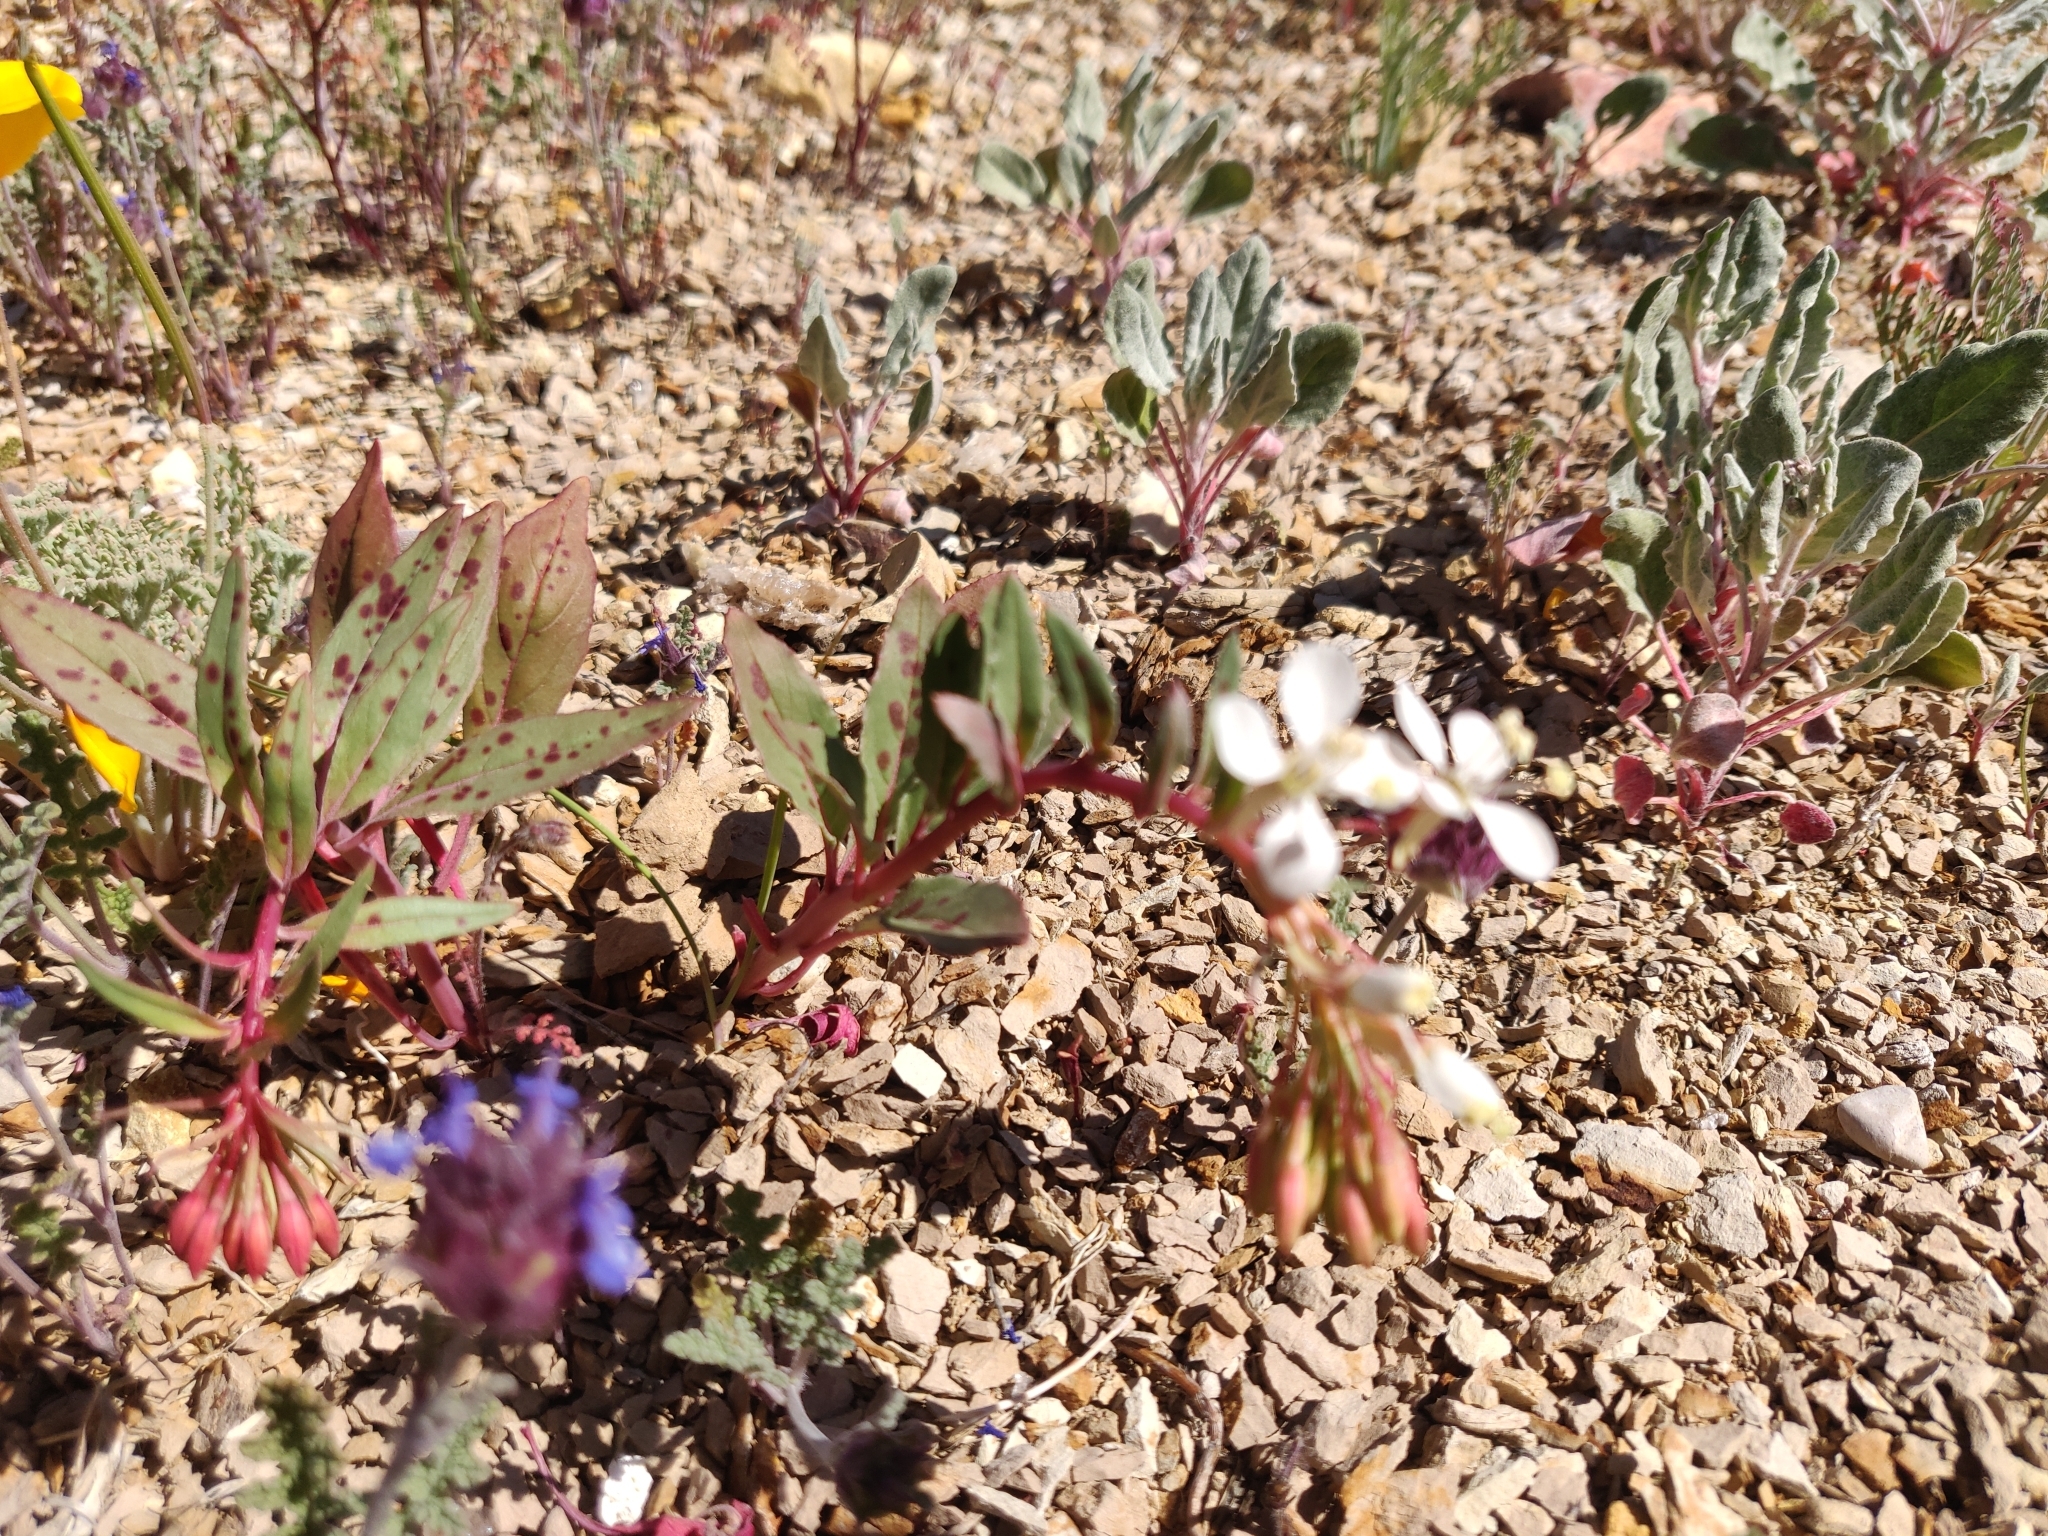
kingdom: Plantae
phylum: Tracheophyta
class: Magnoliopsida
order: Myrtales
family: Onagraceae
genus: Eremothera
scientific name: Eremothera boothii
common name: Booth's evening primrose
